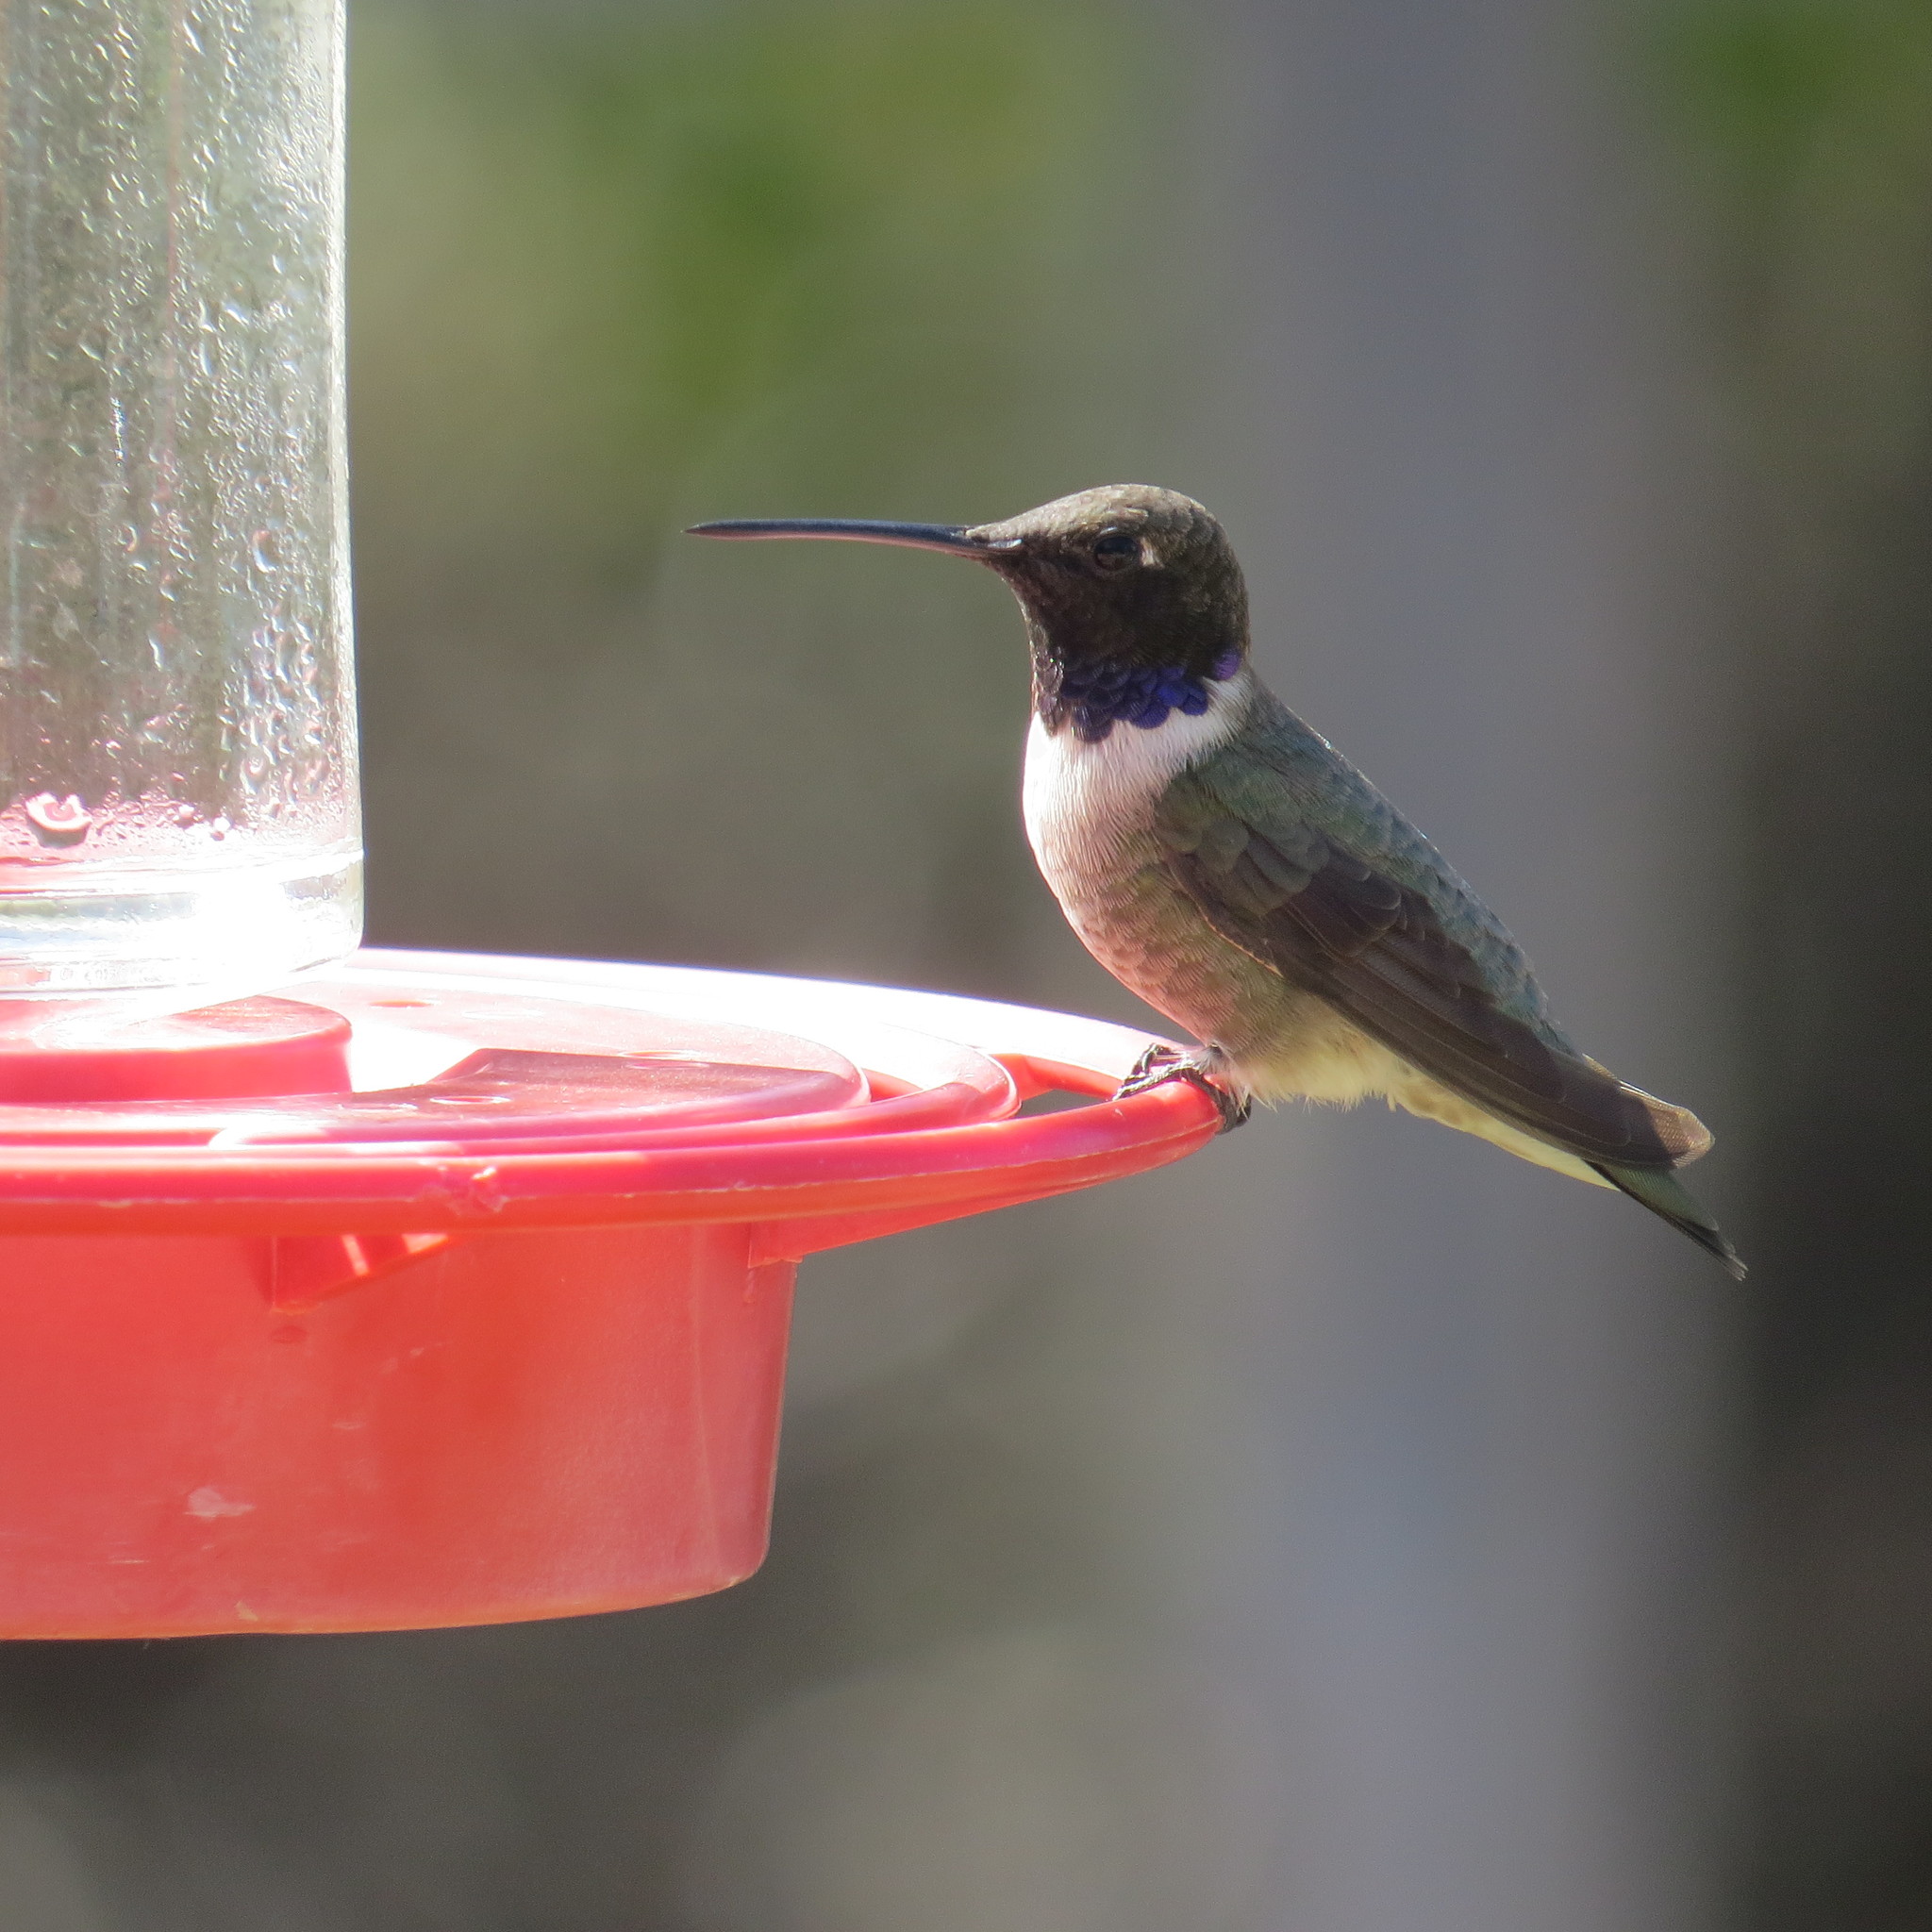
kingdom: Animalia
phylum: Chordata
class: Aves
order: Apodiformes
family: Trochilidae
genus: Archilochus
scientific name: Archilochus alexandri
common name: Black-chinned hummingbird
